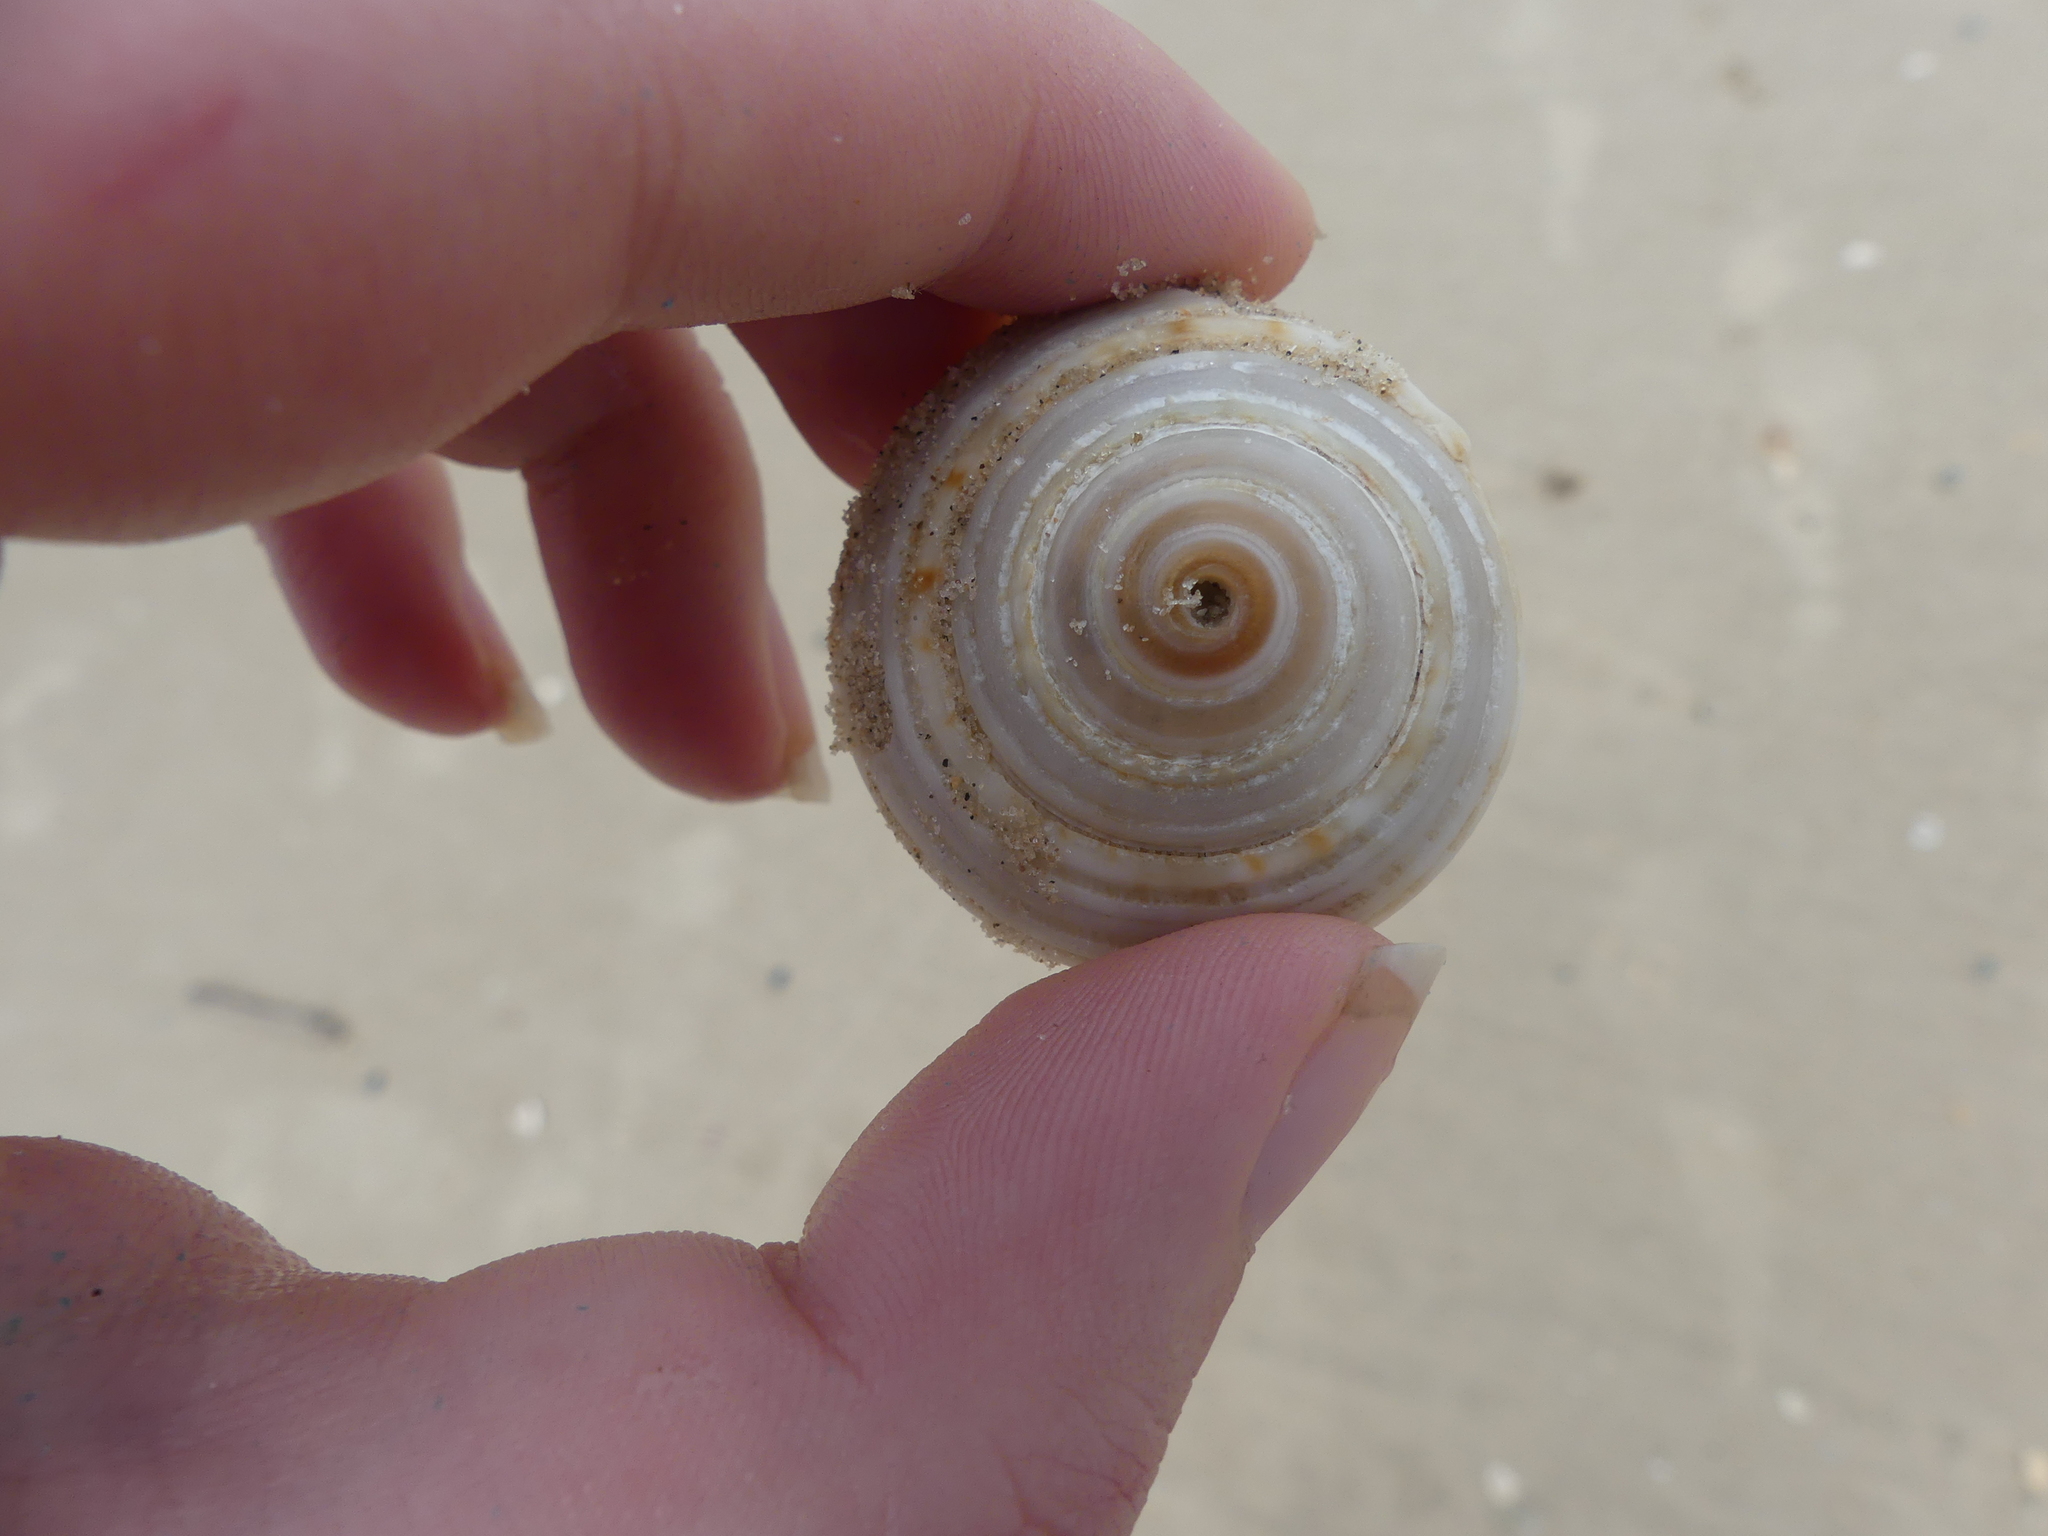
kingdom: Animalia
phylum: Mollusca
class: Gastropoda
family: Architectonicidae
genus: Architectonica
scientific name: Architectonica nobilis
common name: Common sundial
